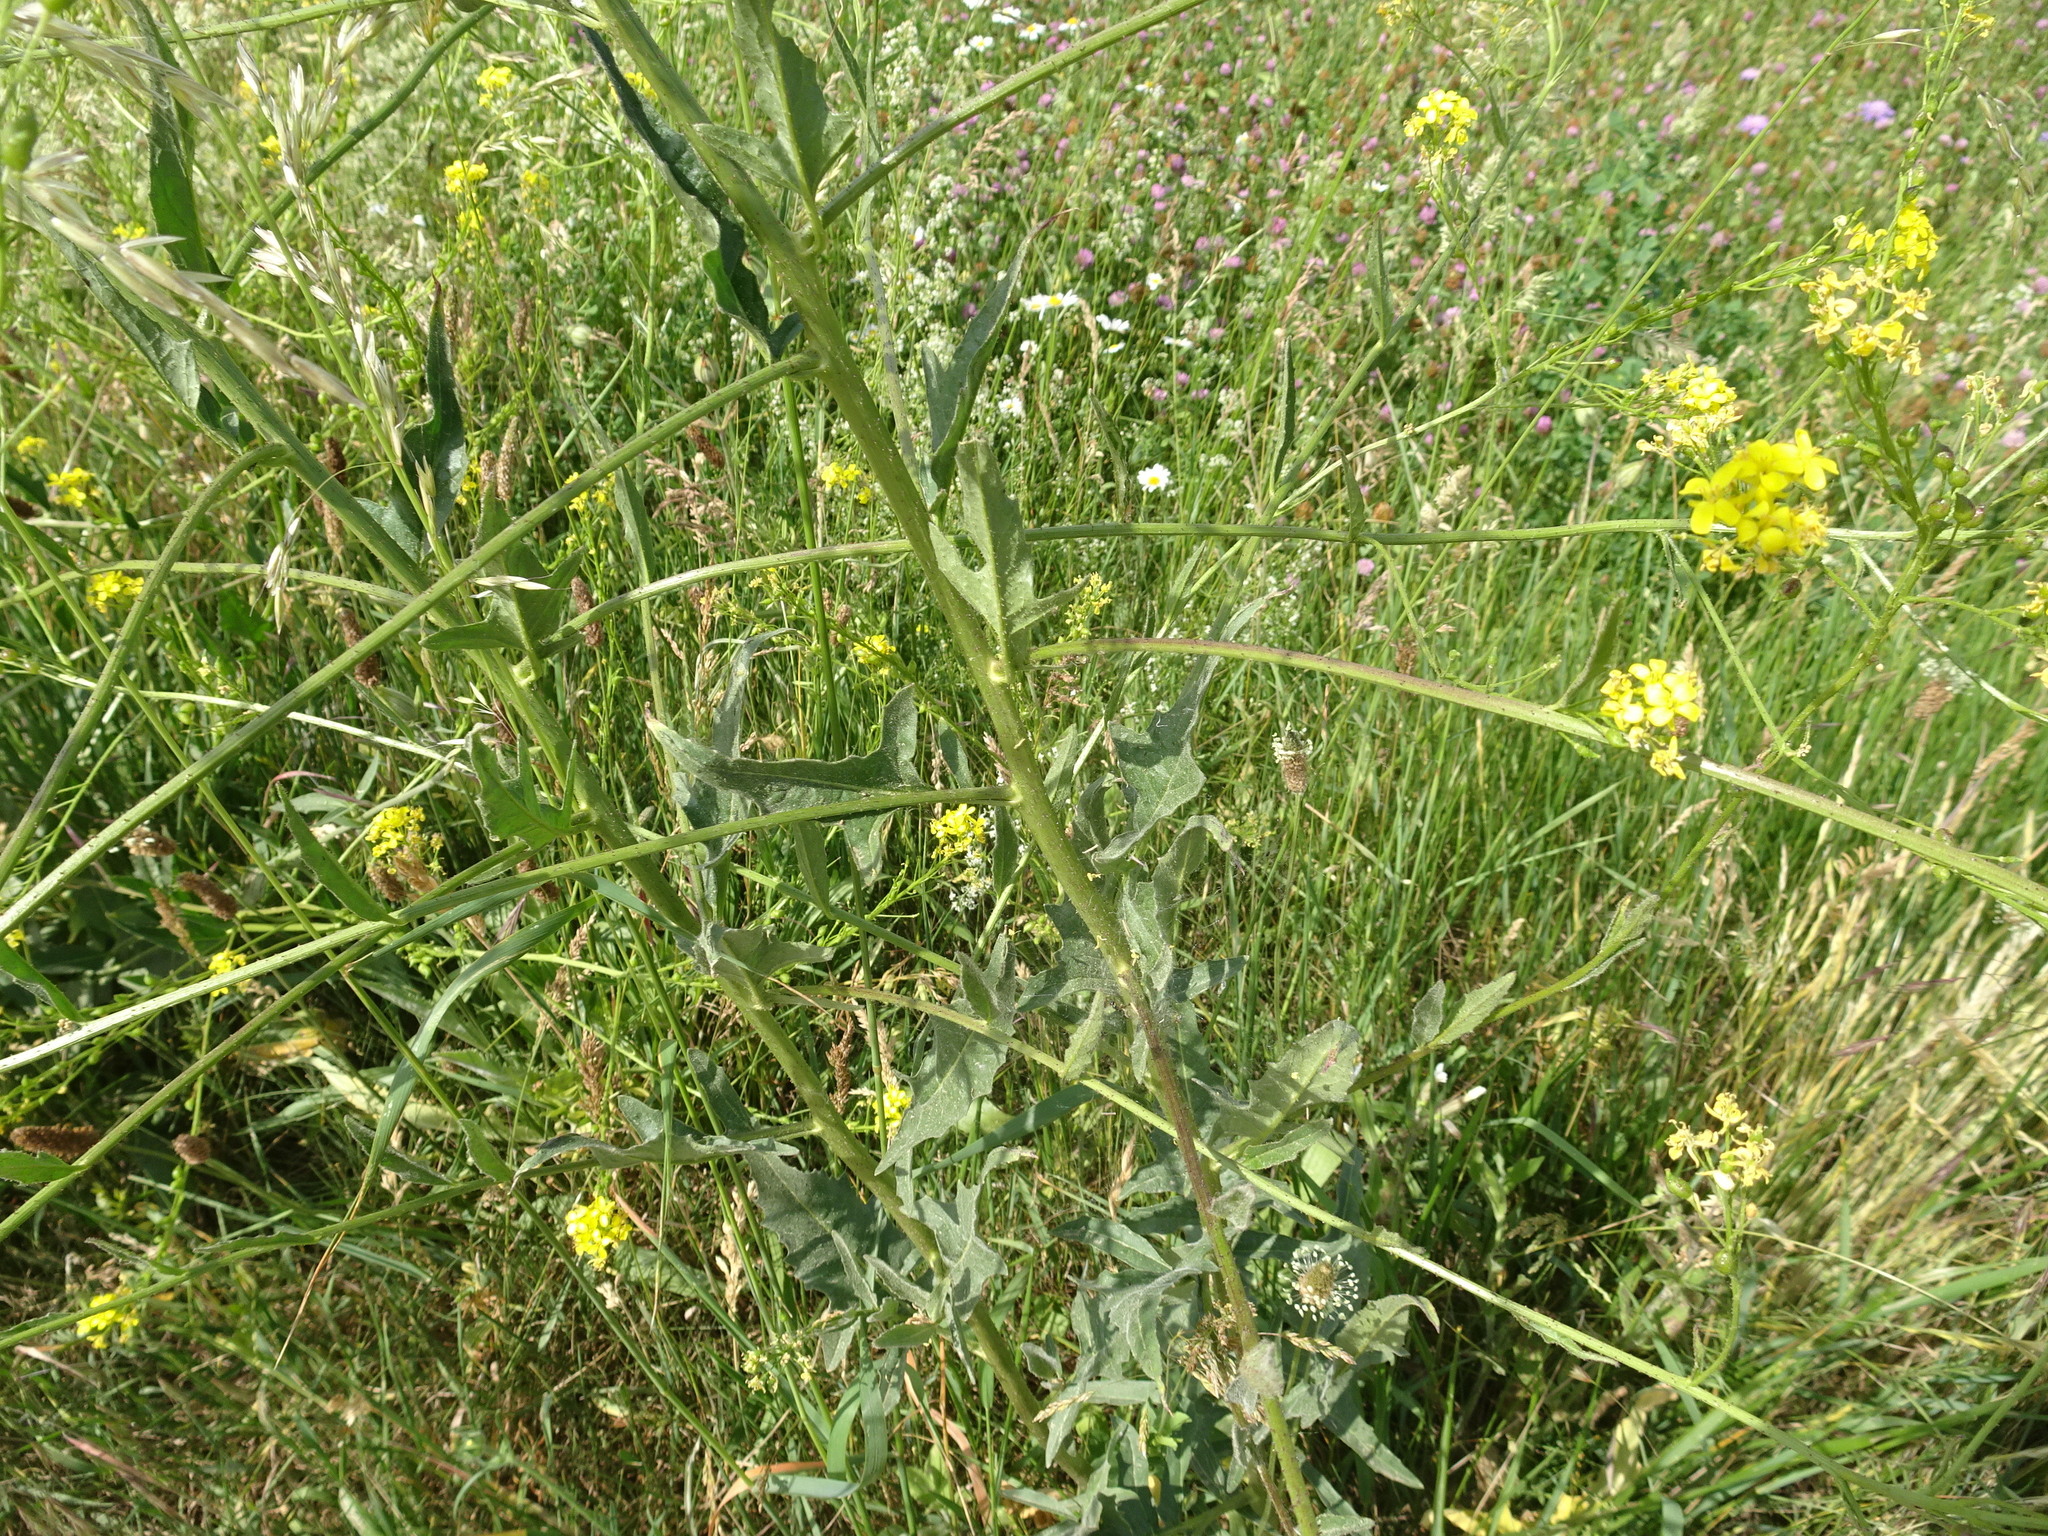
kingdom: Plantae
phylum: Tracheophyta
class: Magnoliopsida
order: Brassicales
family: Brassicaceae
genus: Bunias
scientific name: Bunias orientalis
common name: Warty-cabbage
